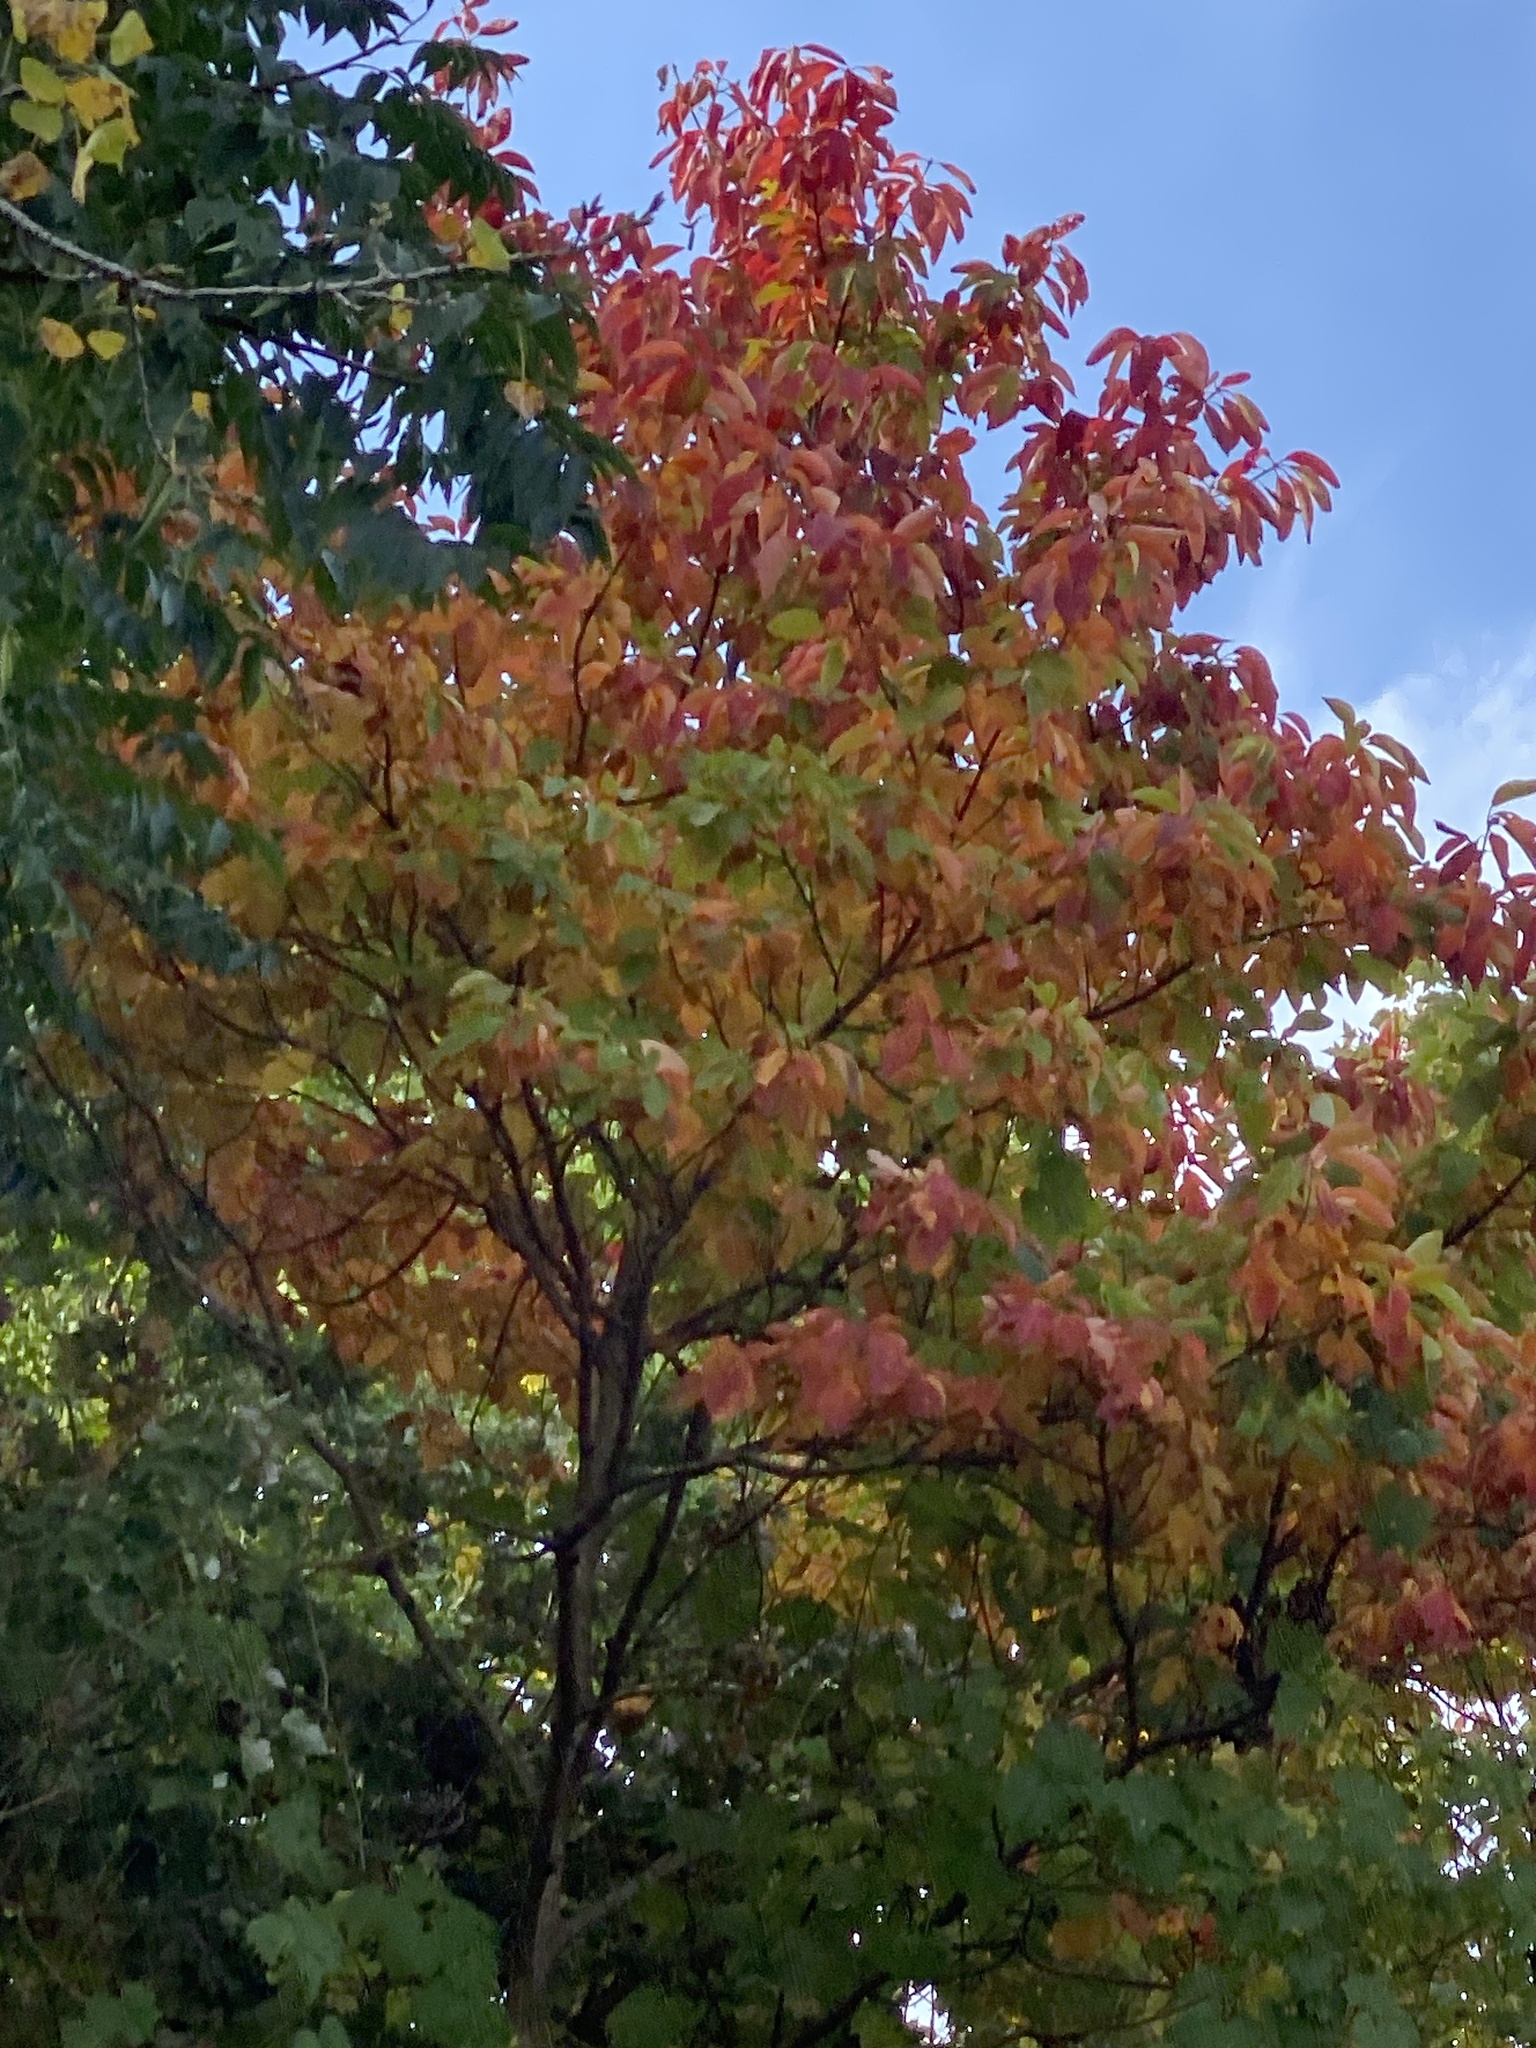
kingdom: Plantae
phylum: Tracheophyta
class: Magnoliopsida
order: Laurales
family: Lauraceae
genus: Sassafras
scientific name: Sassafras albidum
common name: Sassafras
